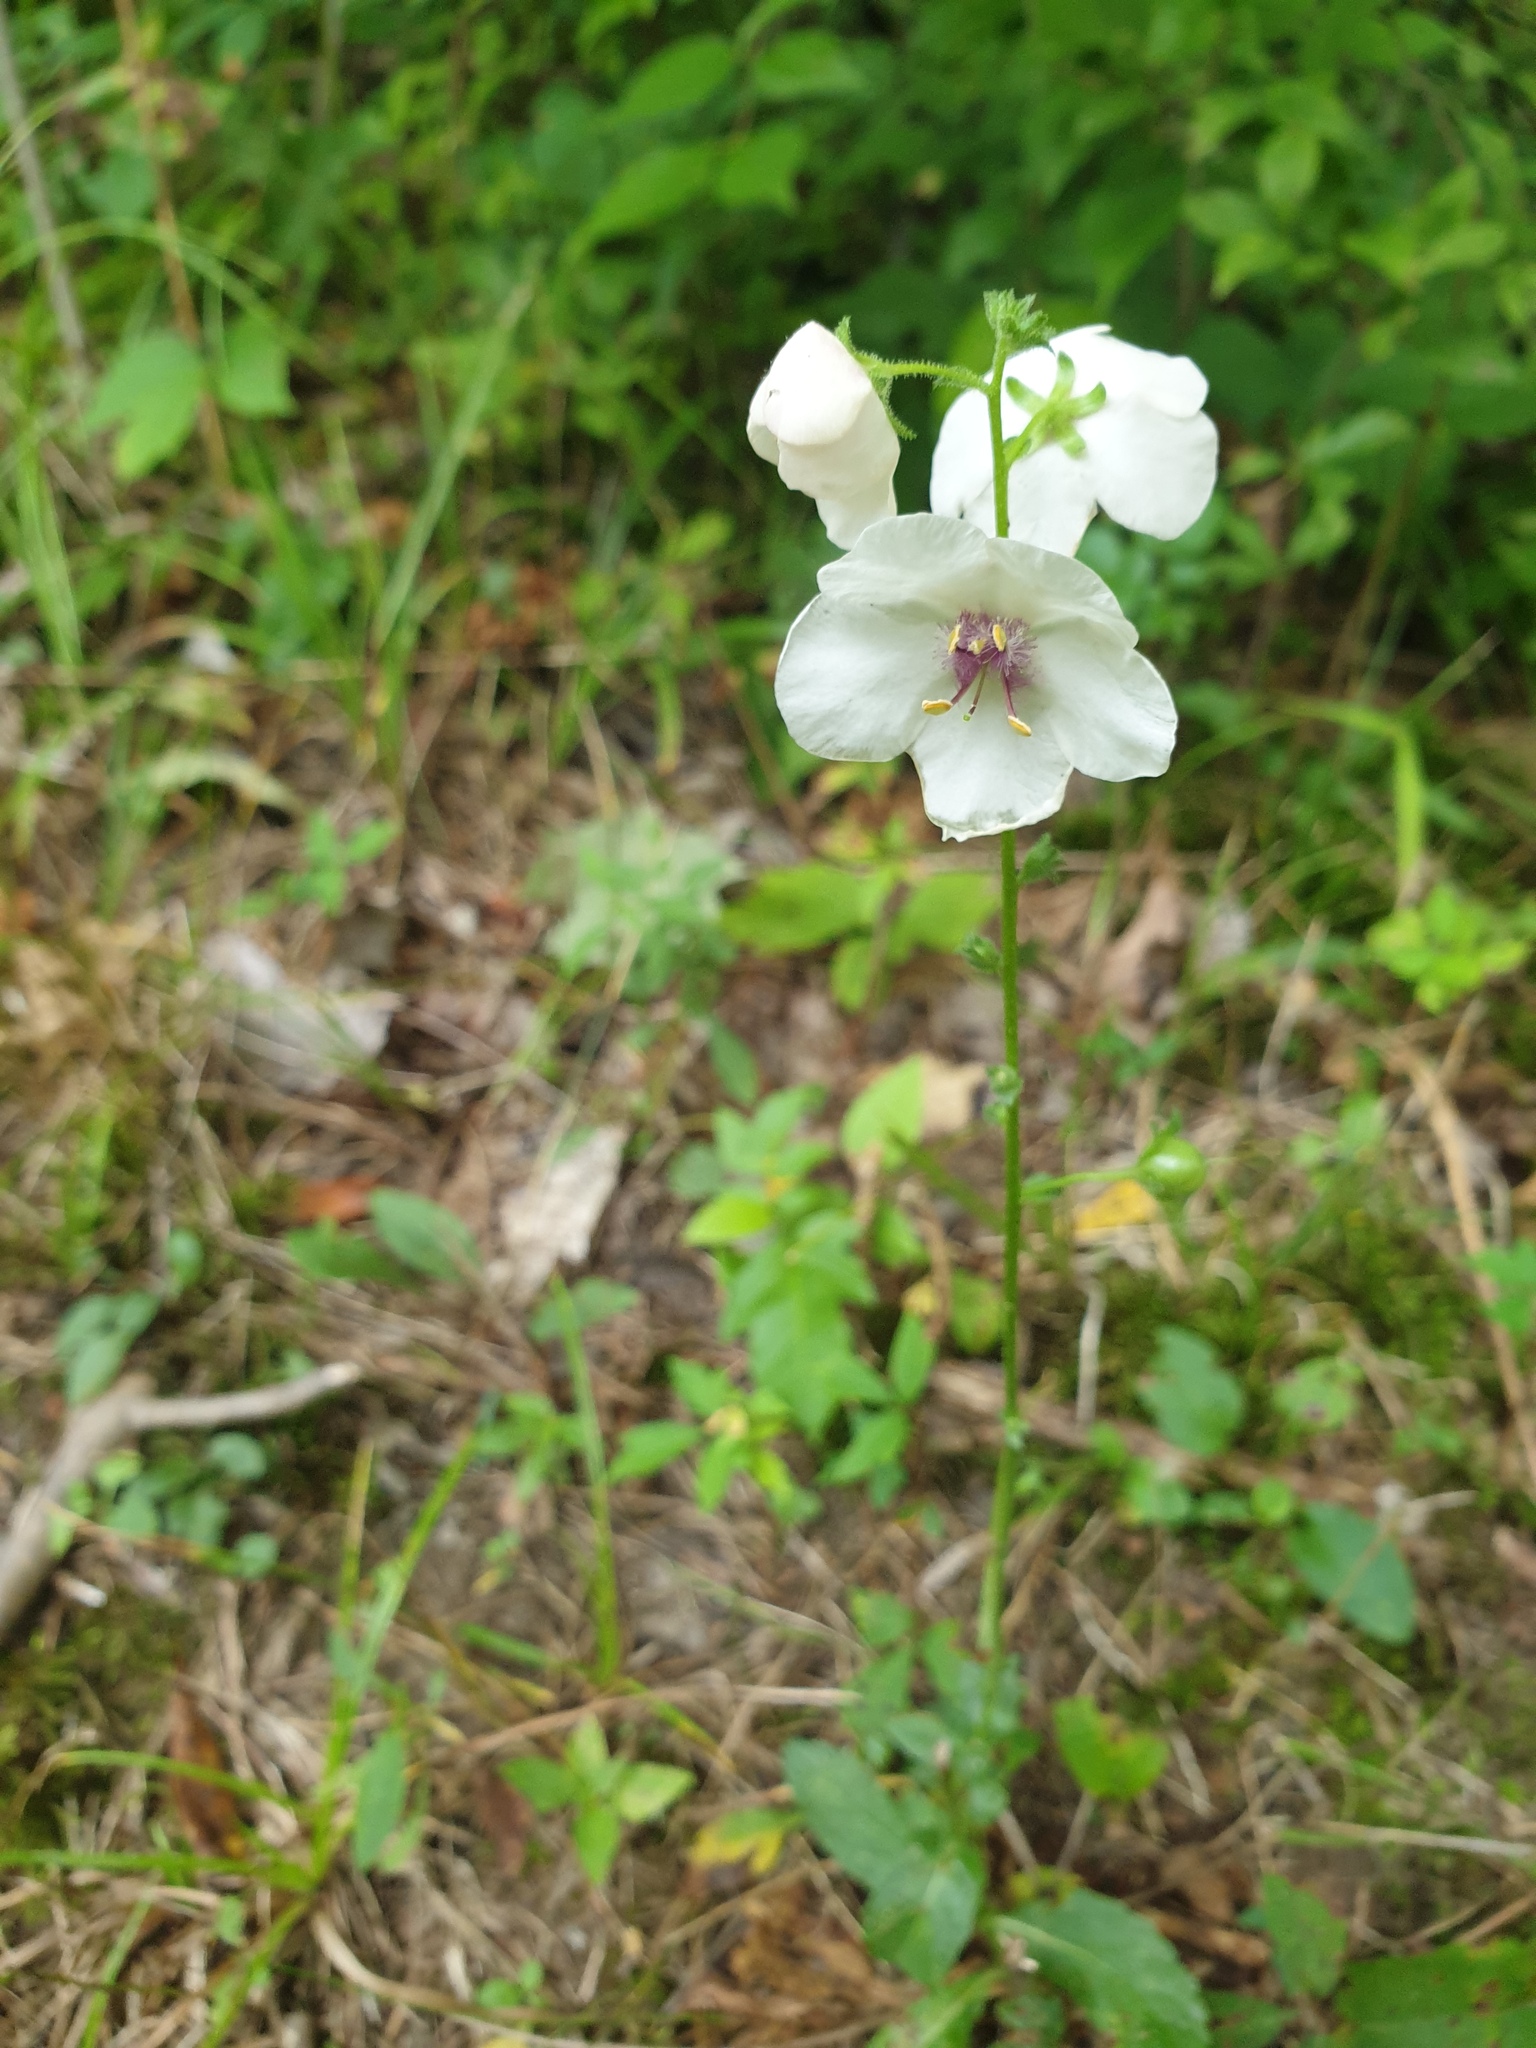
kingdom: Plantae
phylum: Tracheophyta
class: Magnoliopsida
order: Lamiales
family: Scrophulariaceae
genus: Verbascum
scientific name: Verbascum blattaria
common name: Moth mullein
